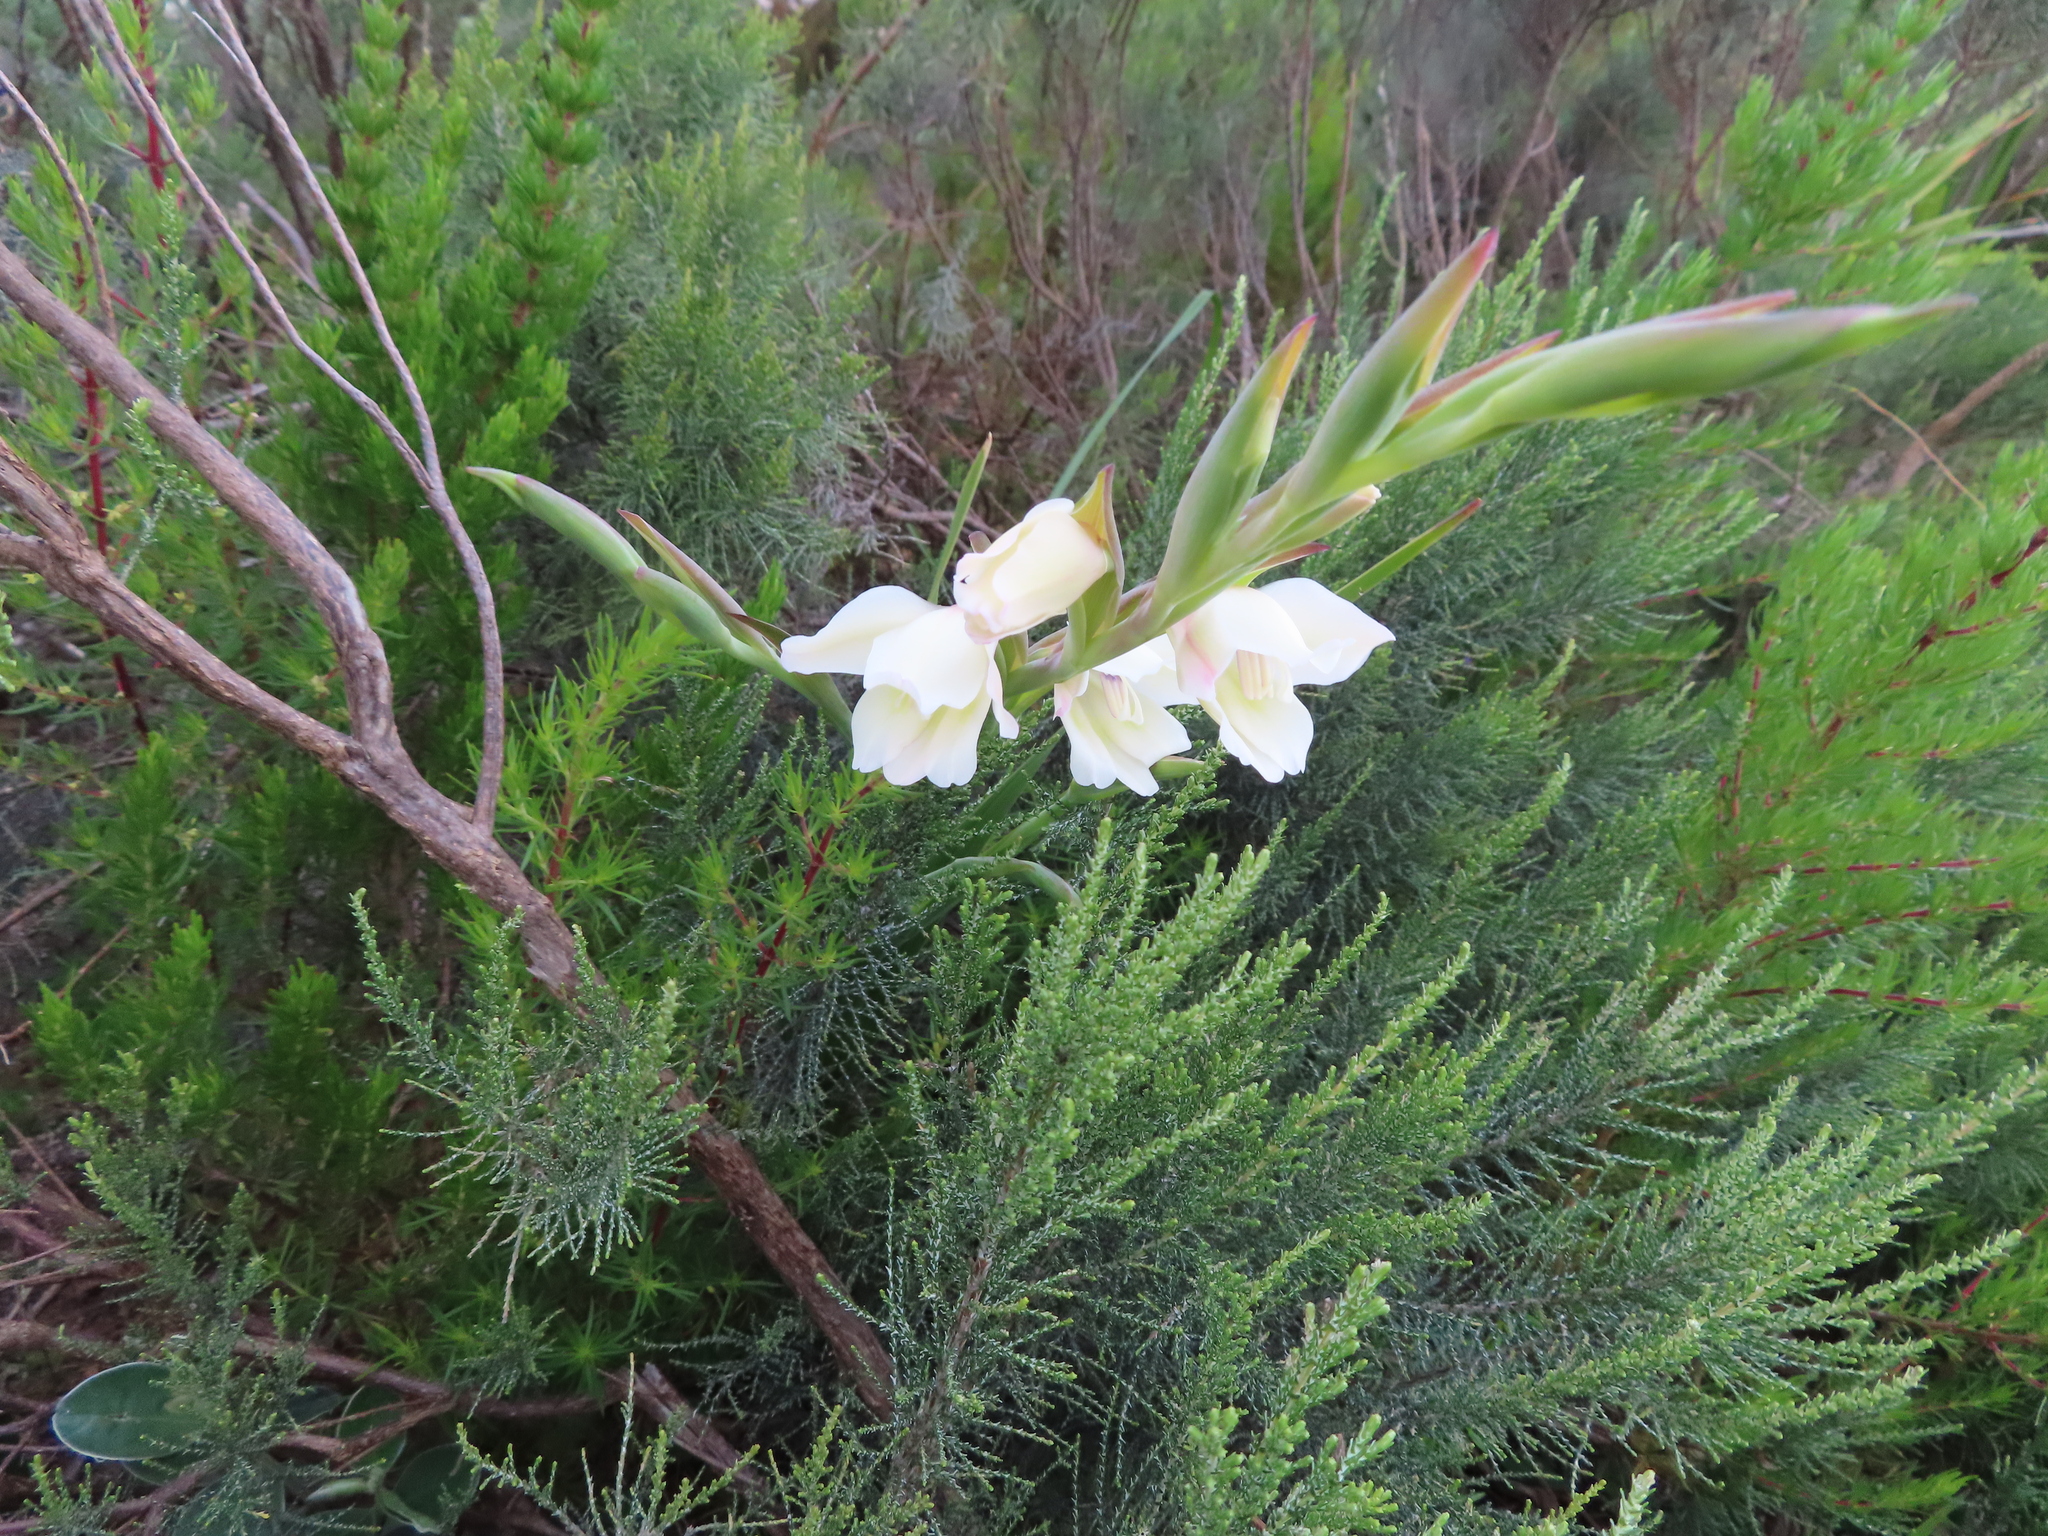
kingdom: Plantae
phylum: Tracheophyta
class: Liliopsida
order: Asparagales
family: Iridaceae
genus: Gladiolus
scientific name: Gladiolus carneus
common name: Painted-lady
